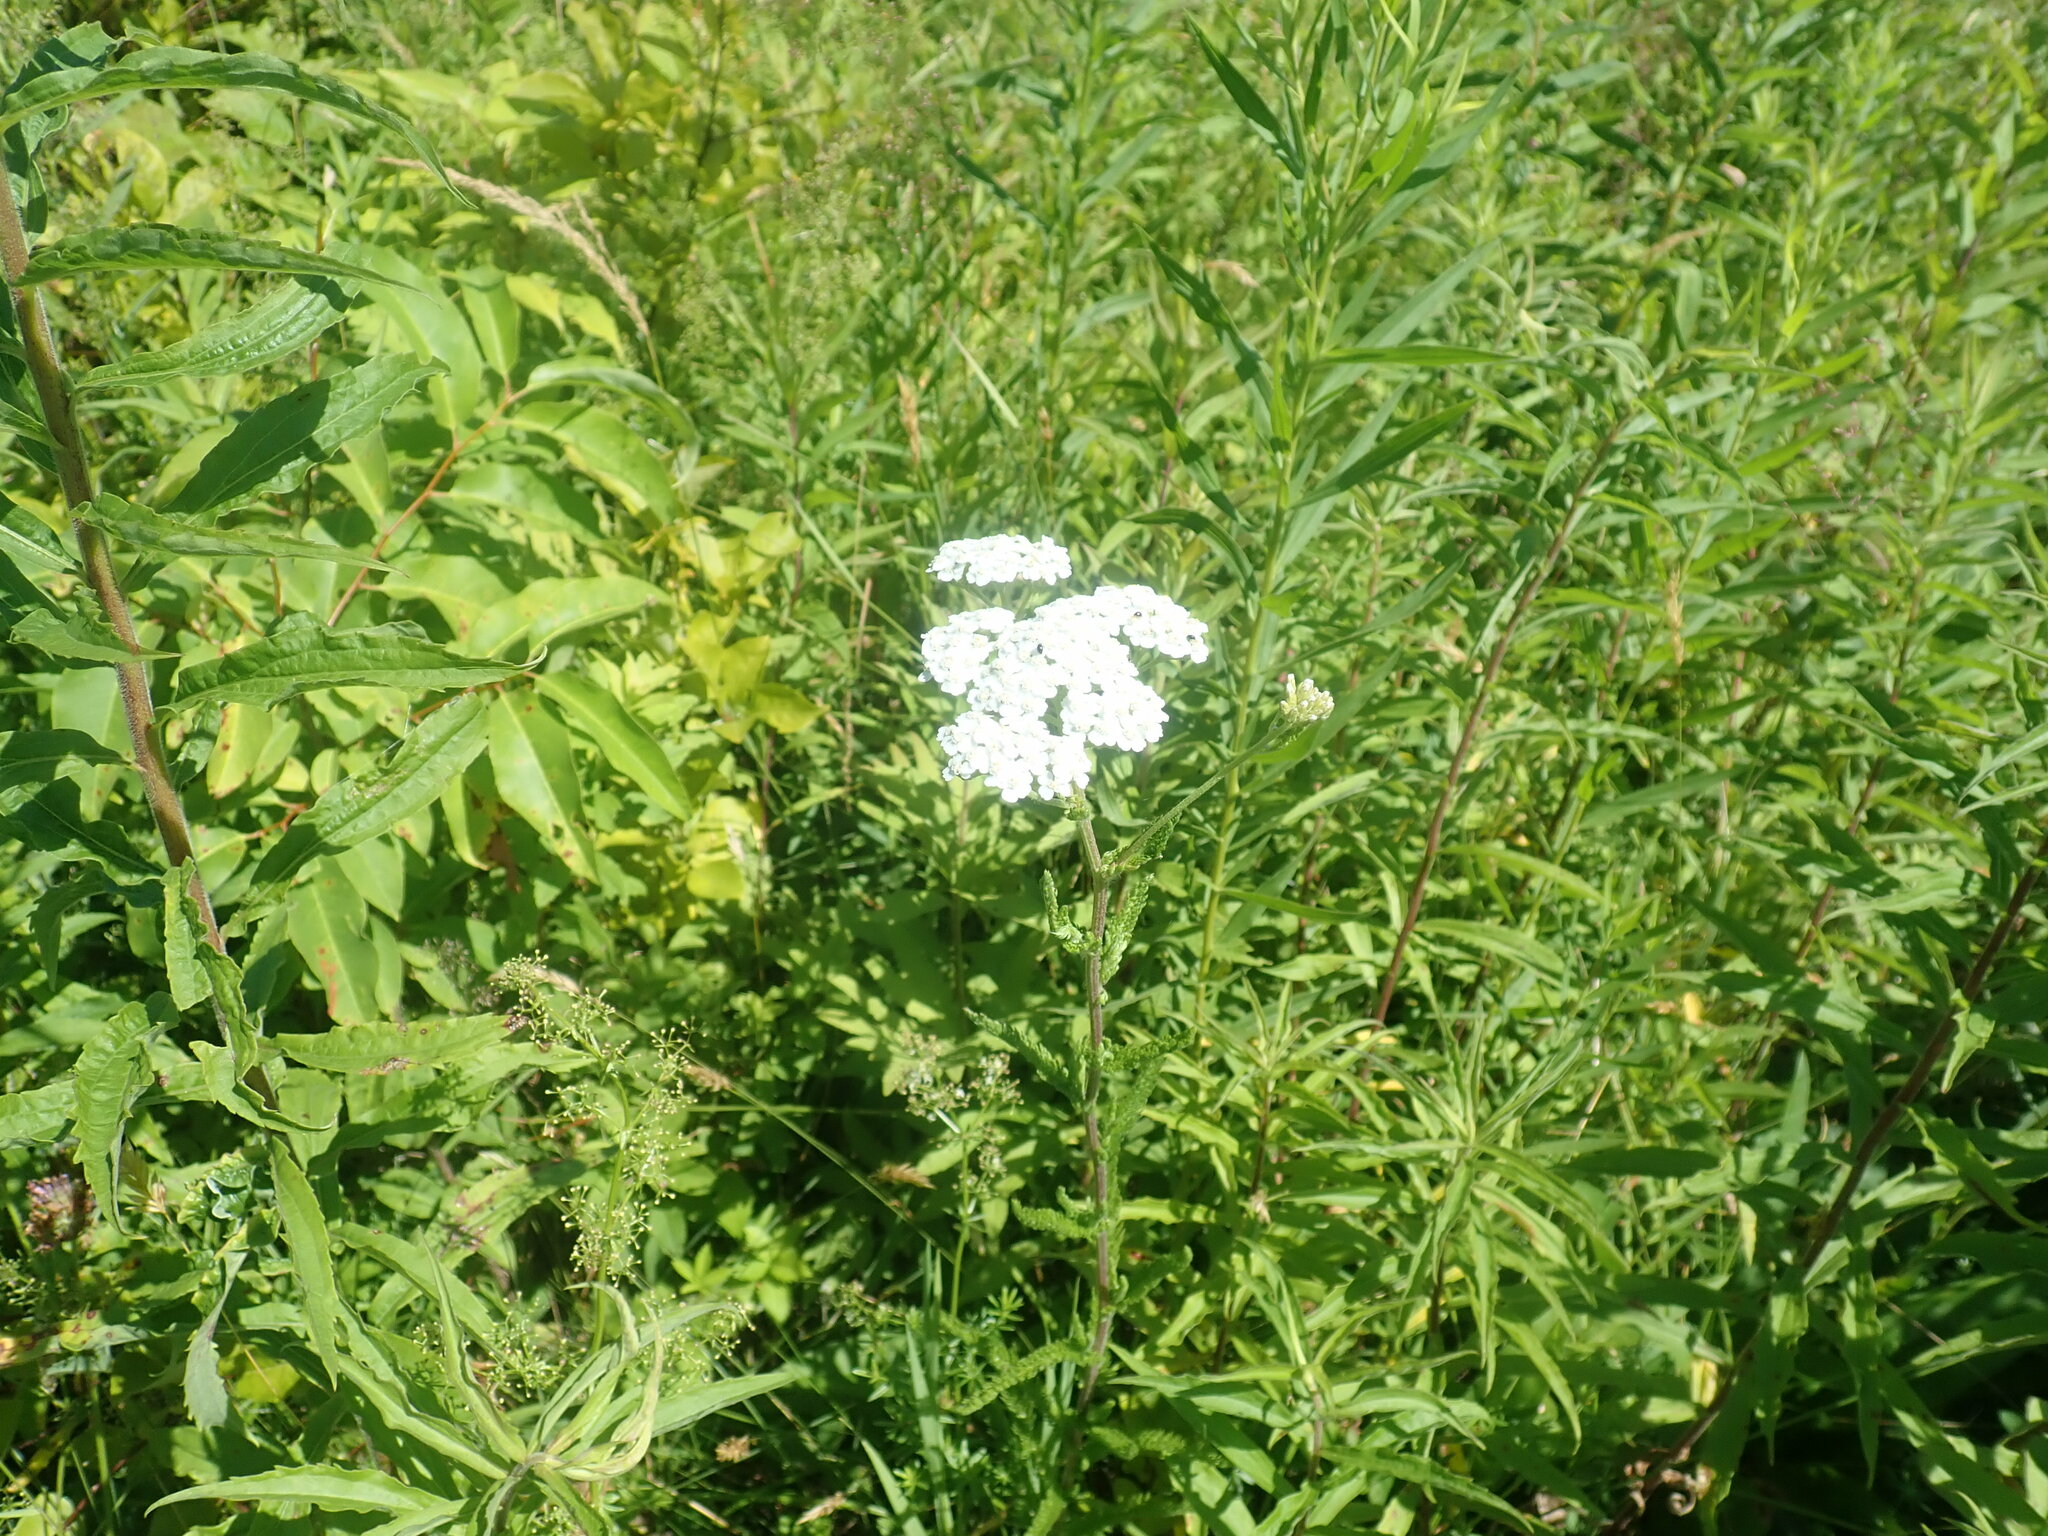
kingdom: Plantae
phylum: Tracheophyta
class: Magnoliopsida
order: Asterales
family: Asteraceae
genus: Achillea
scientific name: Achillea millefolium
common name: Yarrow
